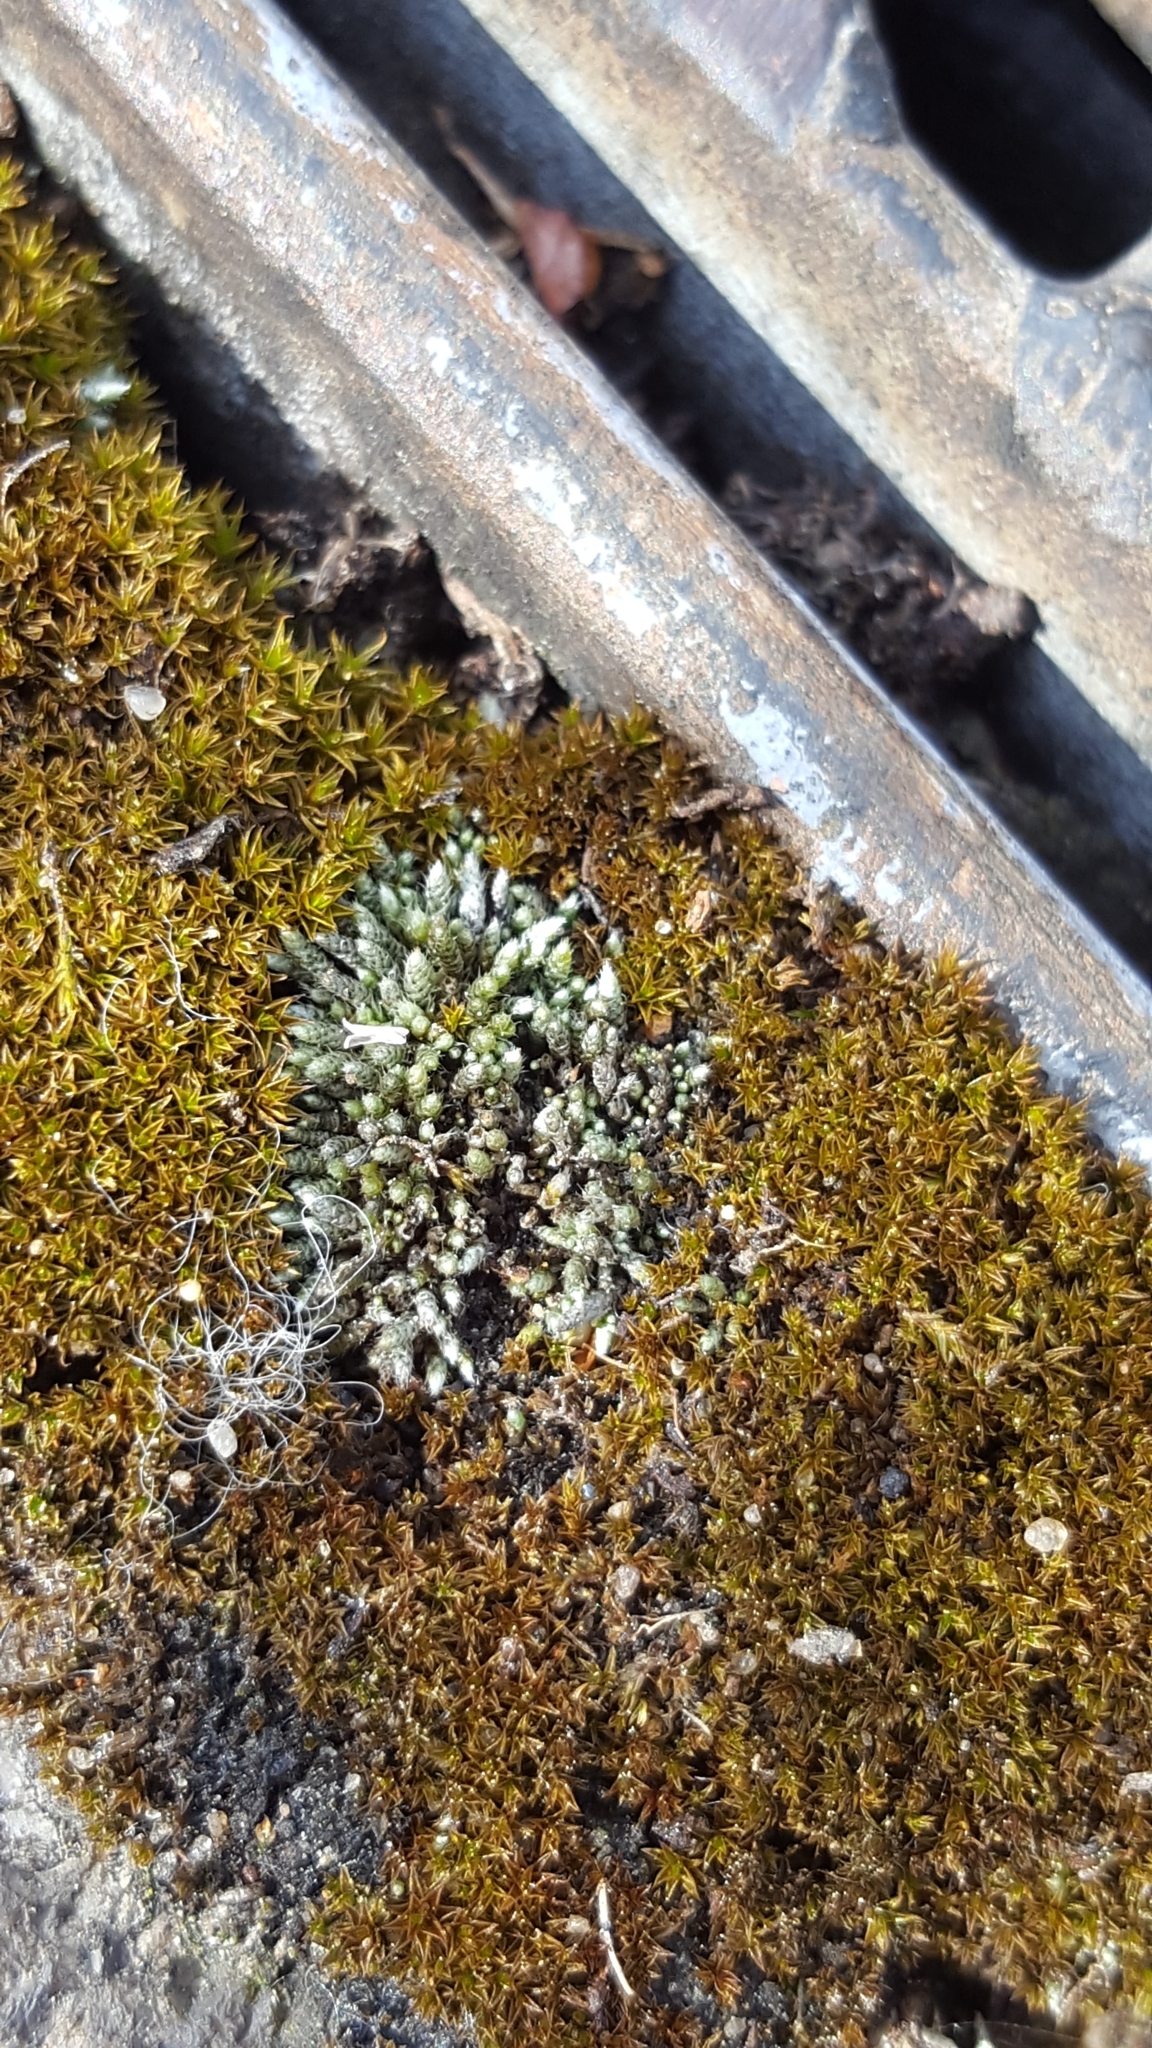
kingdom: Plantae
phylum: Bryophyta
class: Bryopsida
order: Bryales
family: Bryaceae
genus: Bryum
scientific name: Bryum argenteum
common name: Silver-moss
